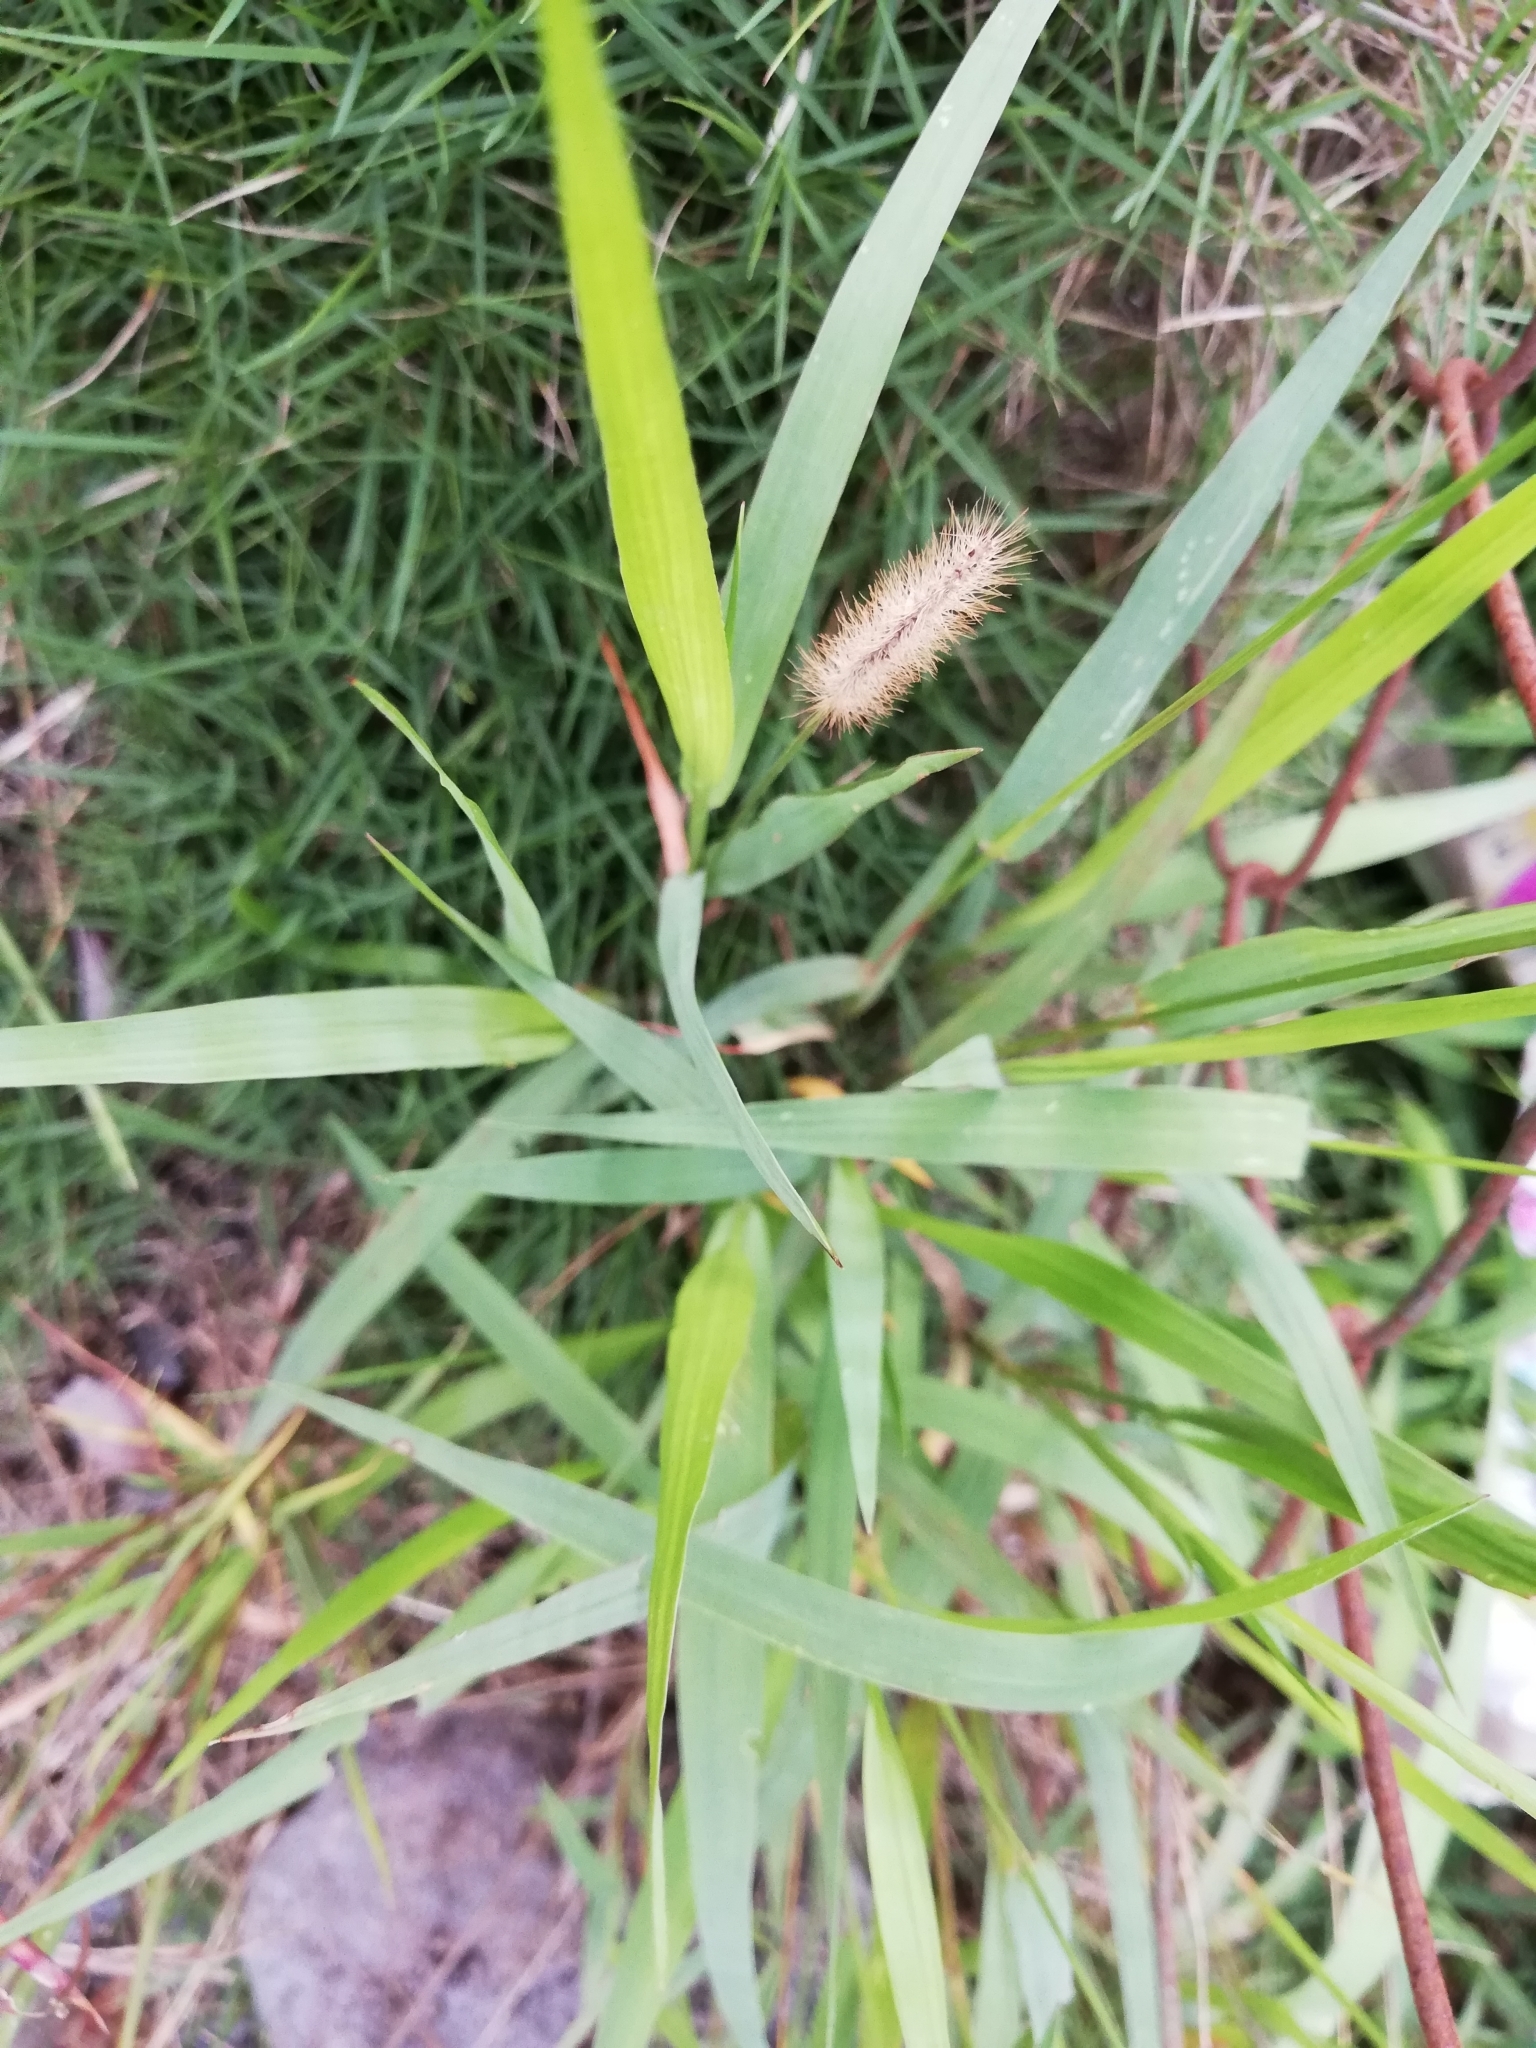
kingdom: Plantae
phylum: Tracheophyta
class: Liliopsida
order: Poales
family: Poaceae
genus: Setaria
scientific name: Setaria parviflora
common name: Knotroot bristle-grass
